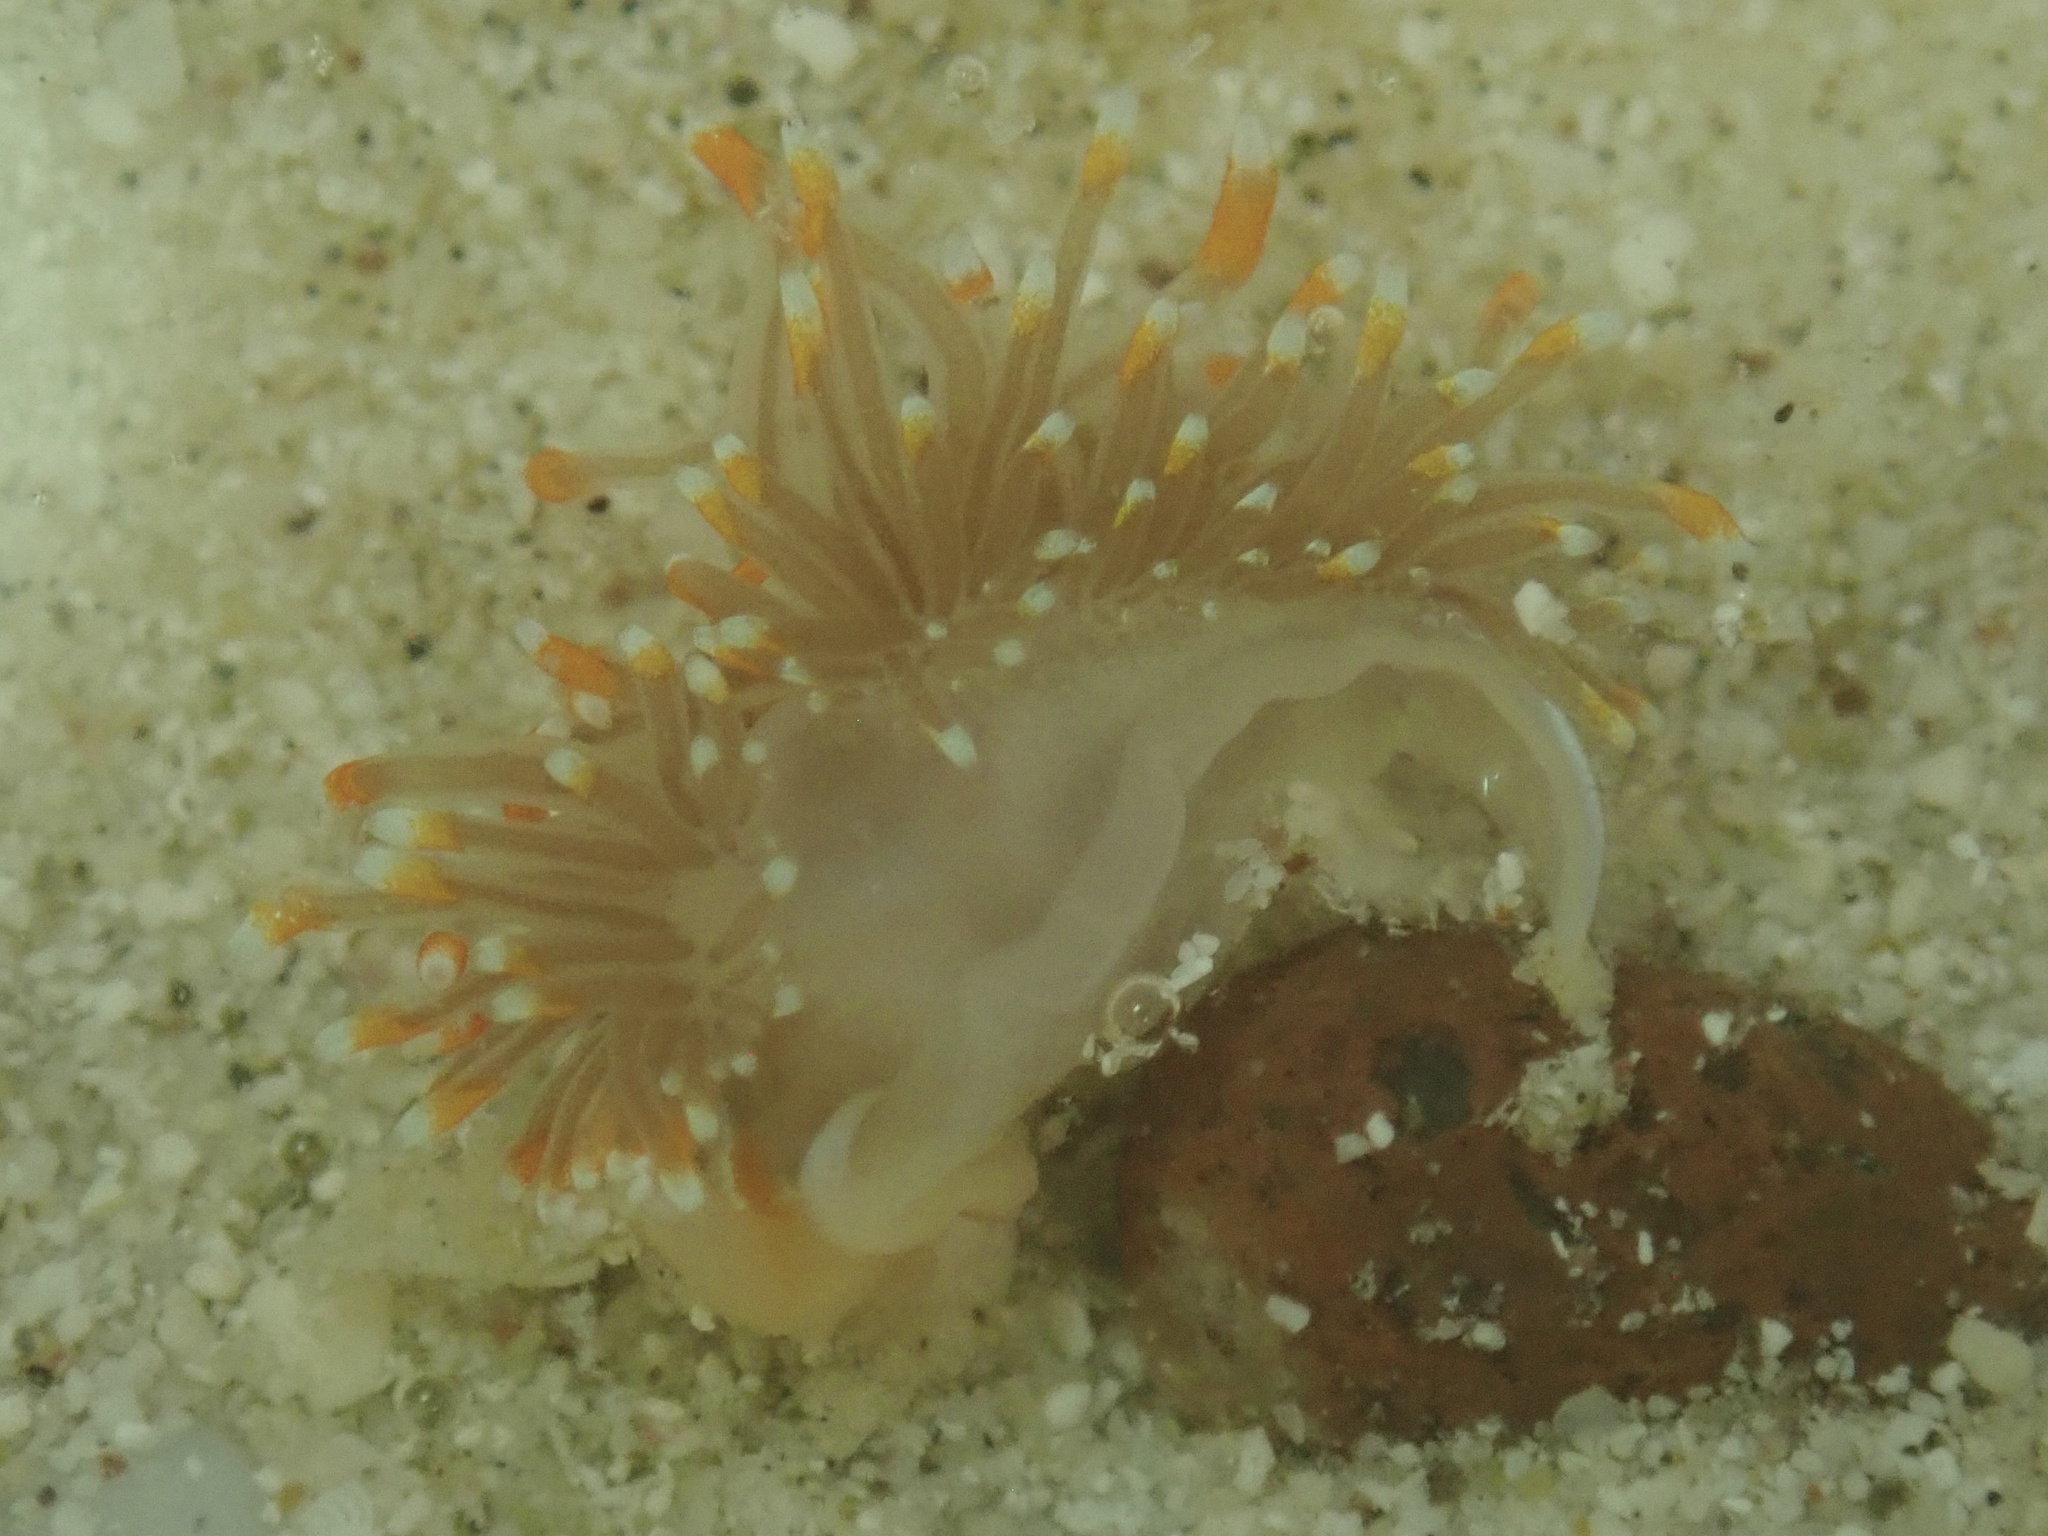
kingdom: Animalia
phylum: Mollusca
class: Gastropoda
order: Nudibranchia
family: Myrrhinidae
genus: Hermissenda
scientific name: Hermissenda opalescens
